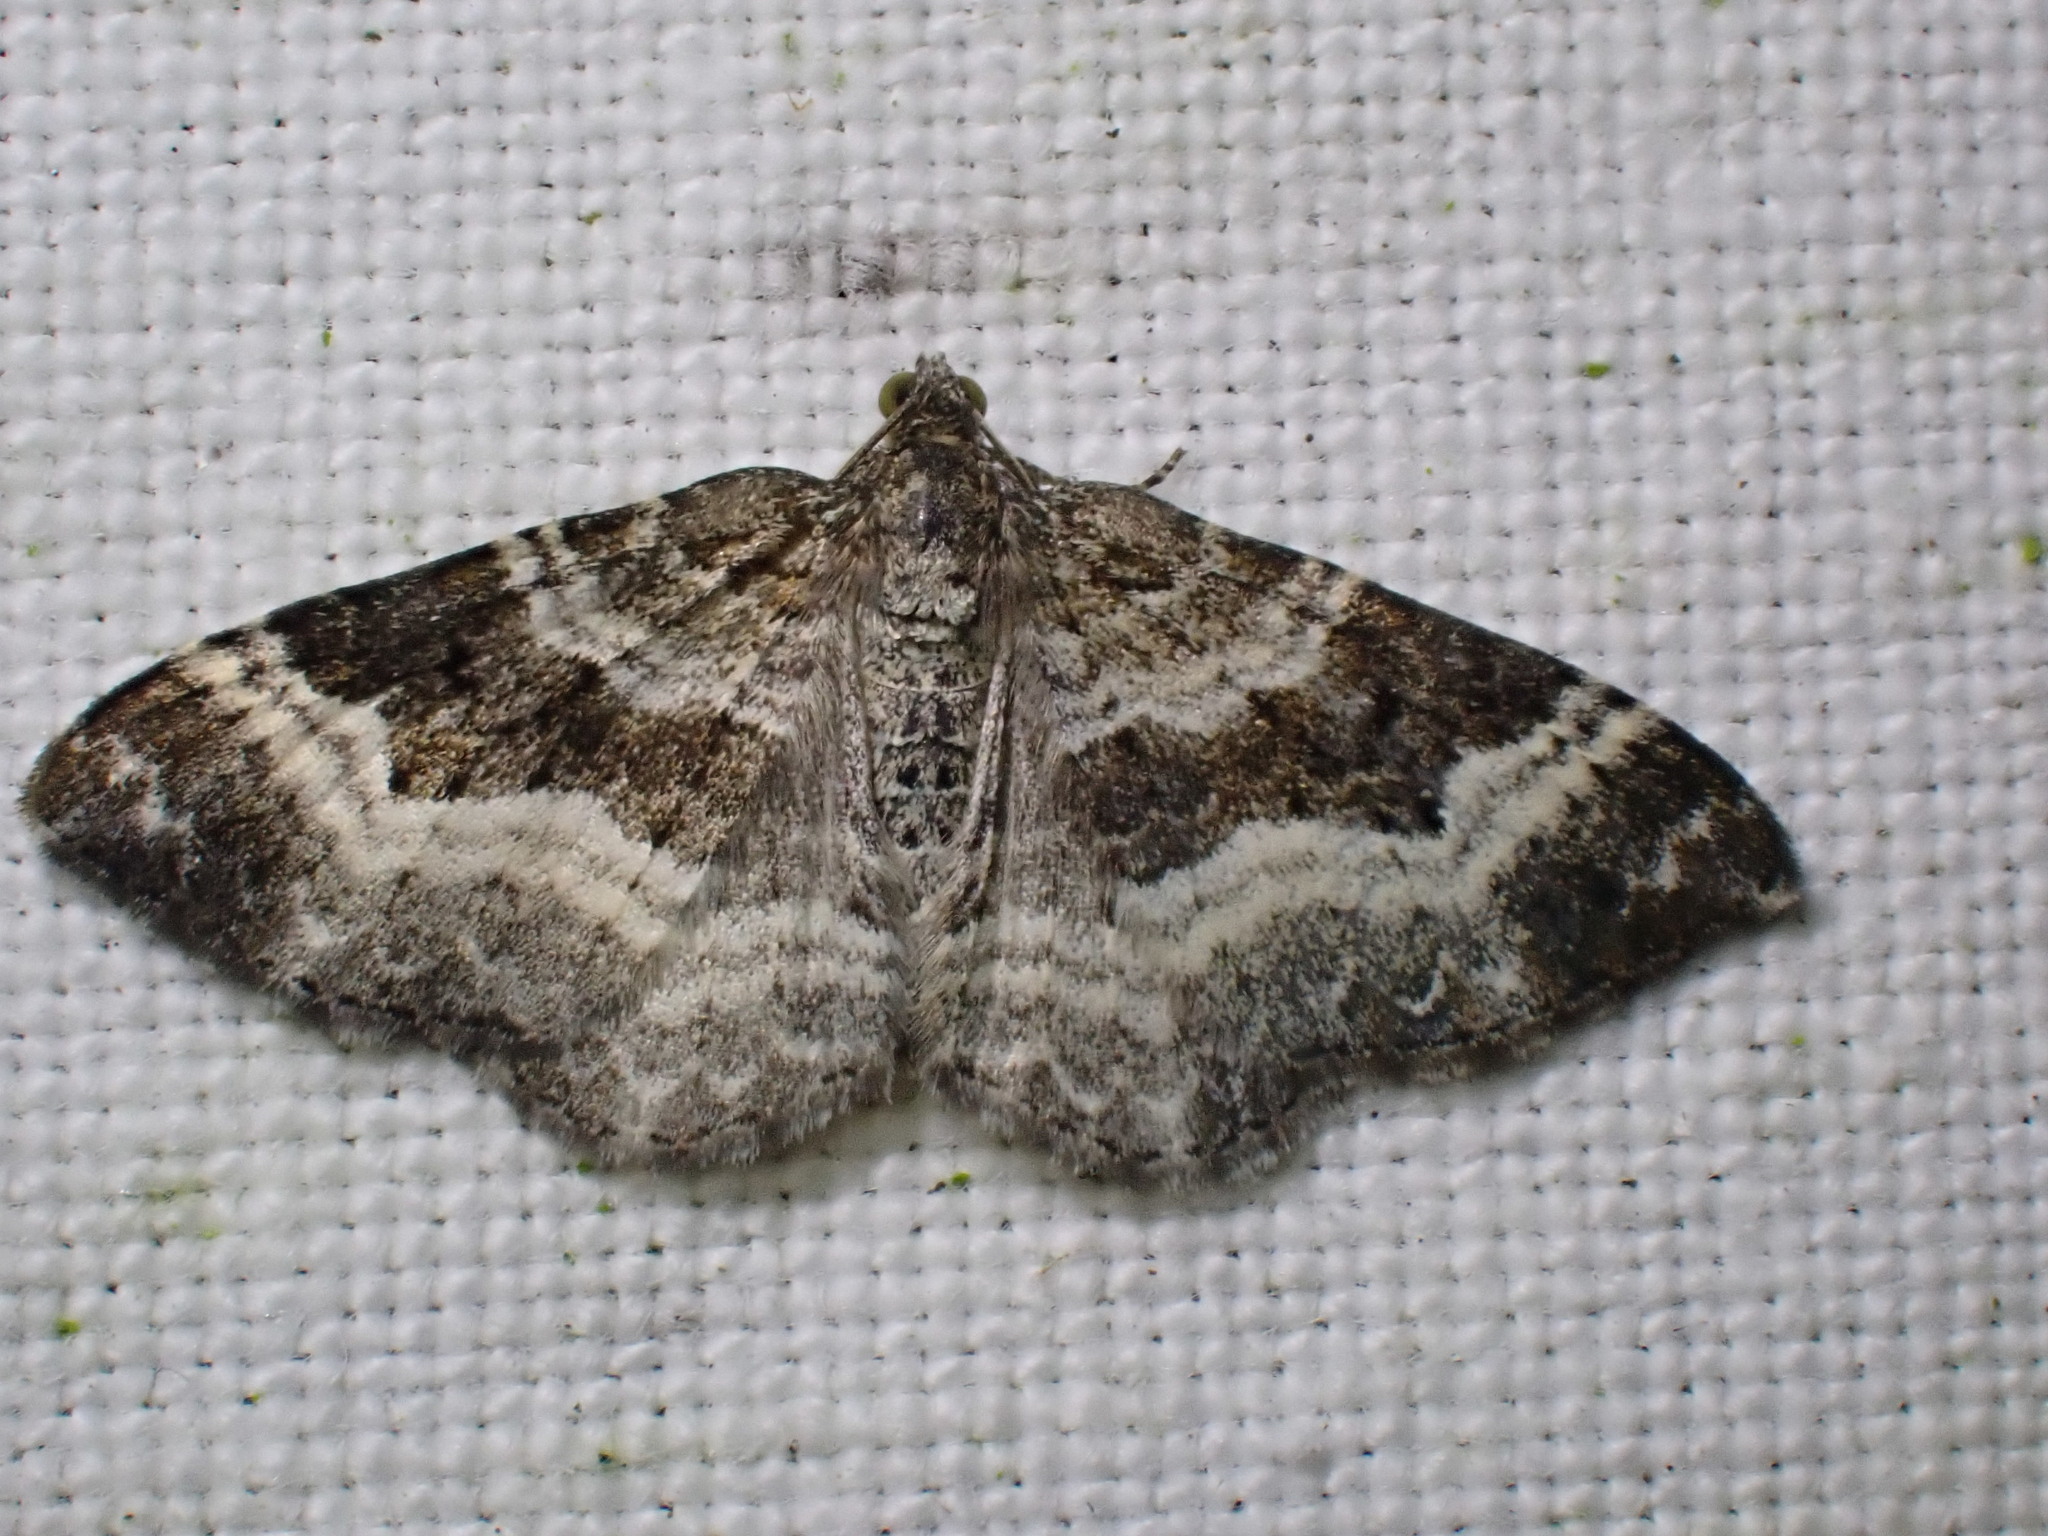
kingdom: Animalia
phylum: Arthropoda
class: Insecta
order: Lepidoptera
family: Geometridae
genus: Epirrhoe
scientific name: Epirrhoe alternata
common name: Common carpet
